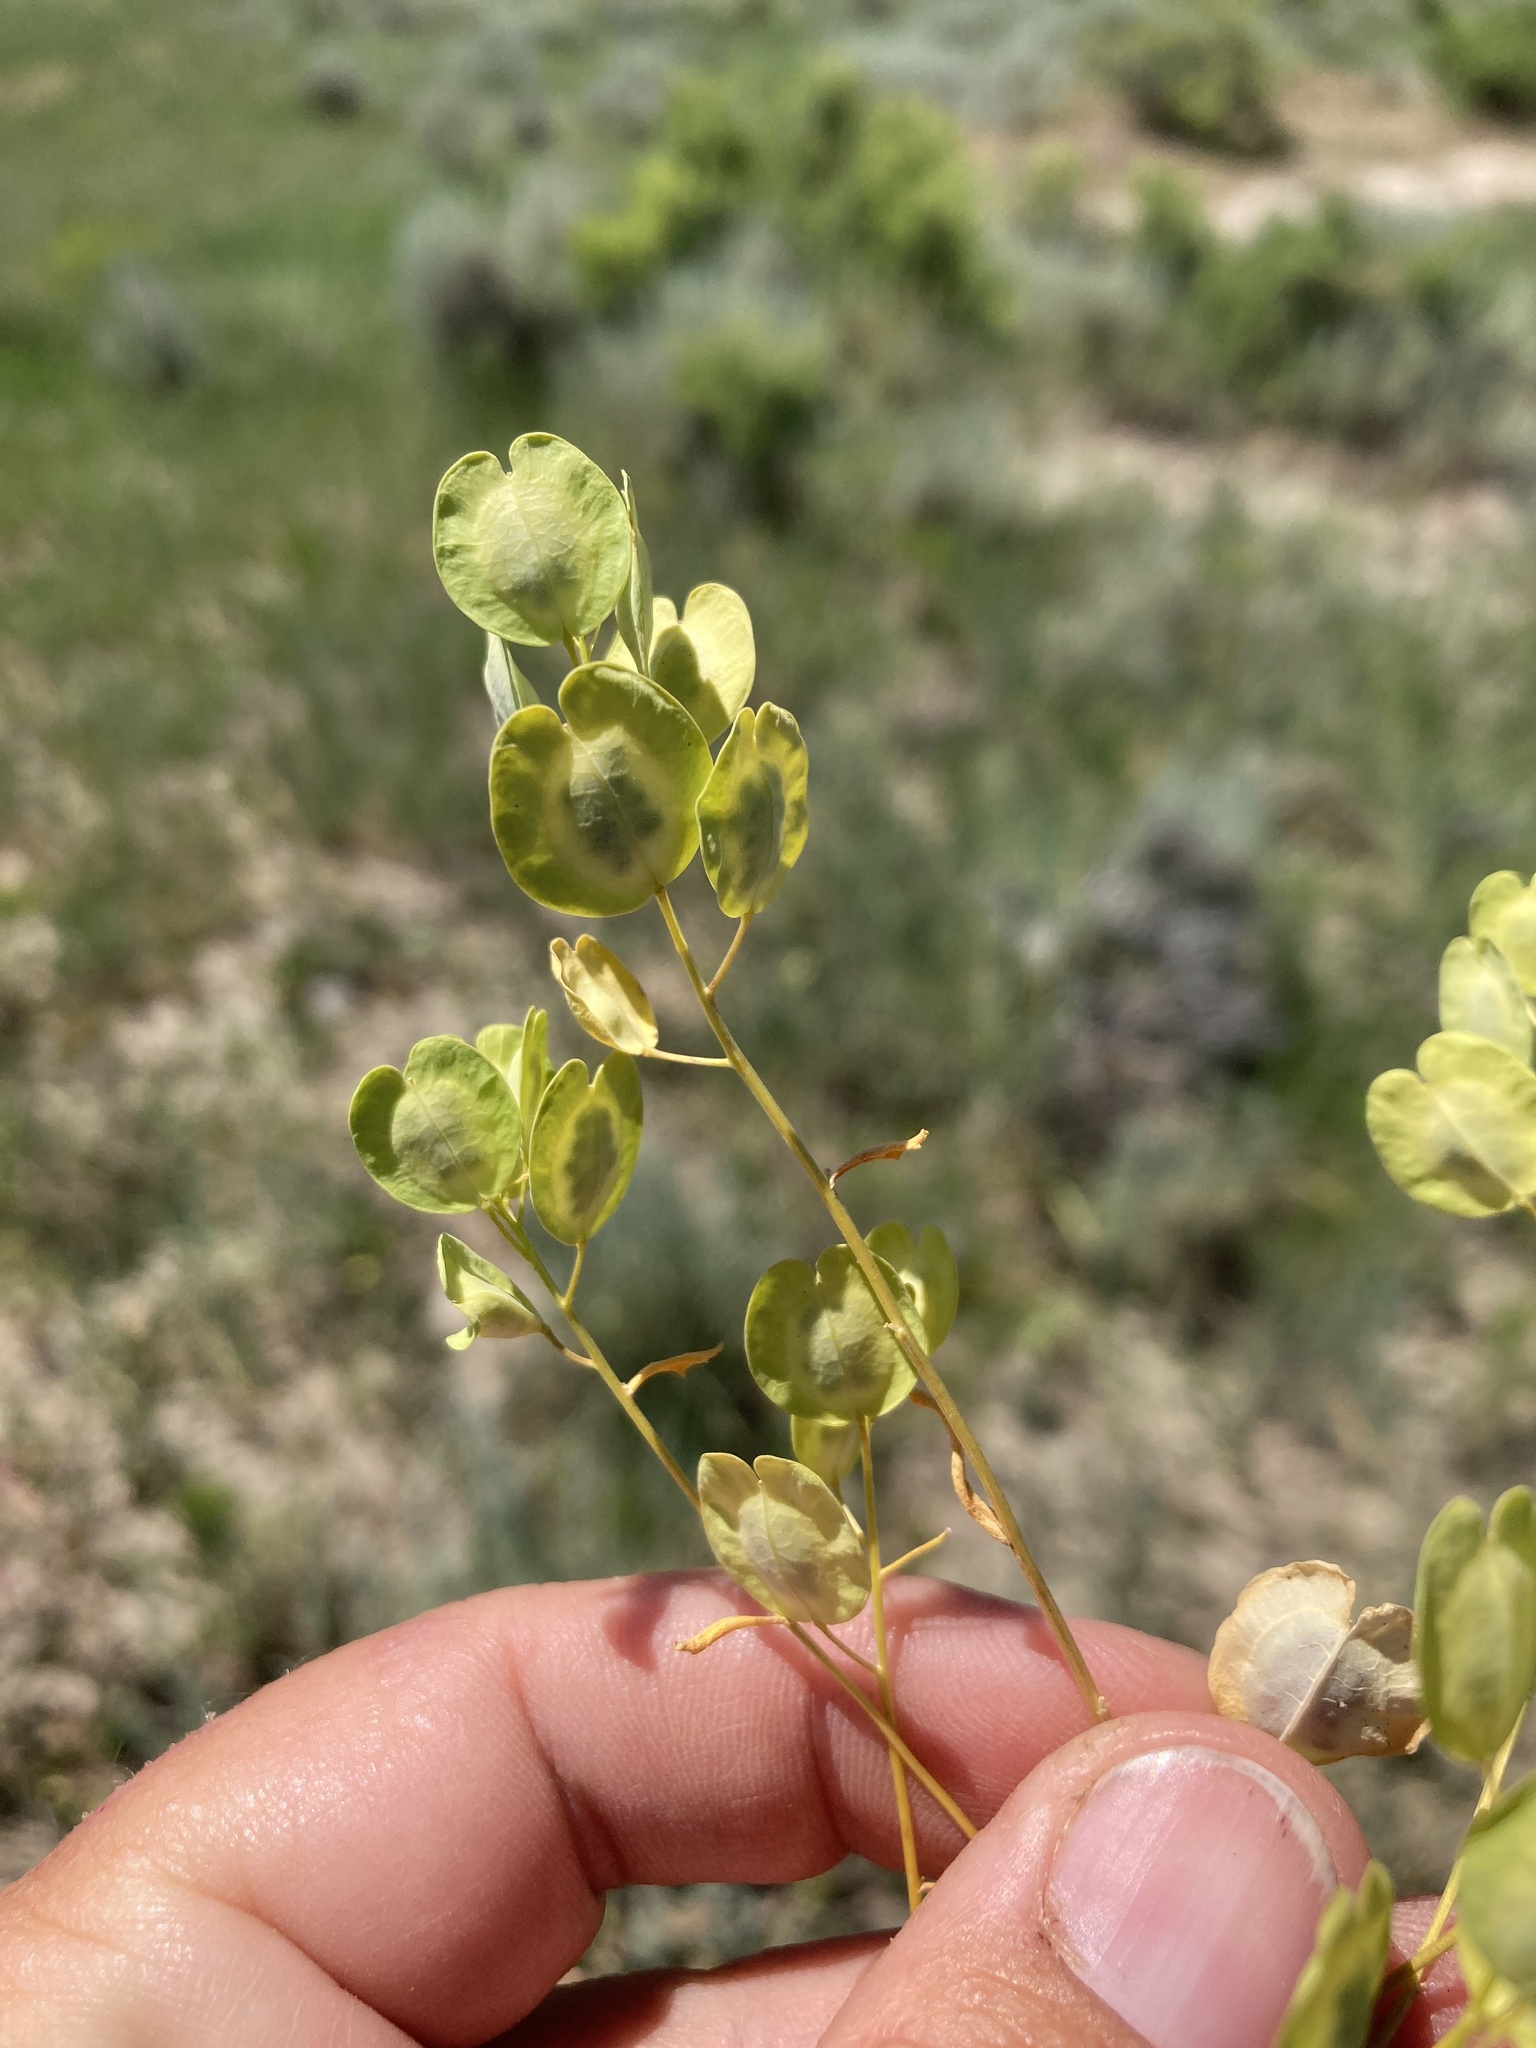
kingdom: Plantae
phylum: Tracheophyta
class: Magnoliopsida
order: Brassicales
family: Brassicaceae
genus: Thlaspi
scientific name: Thlaspi arvense
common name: Field pennycress
